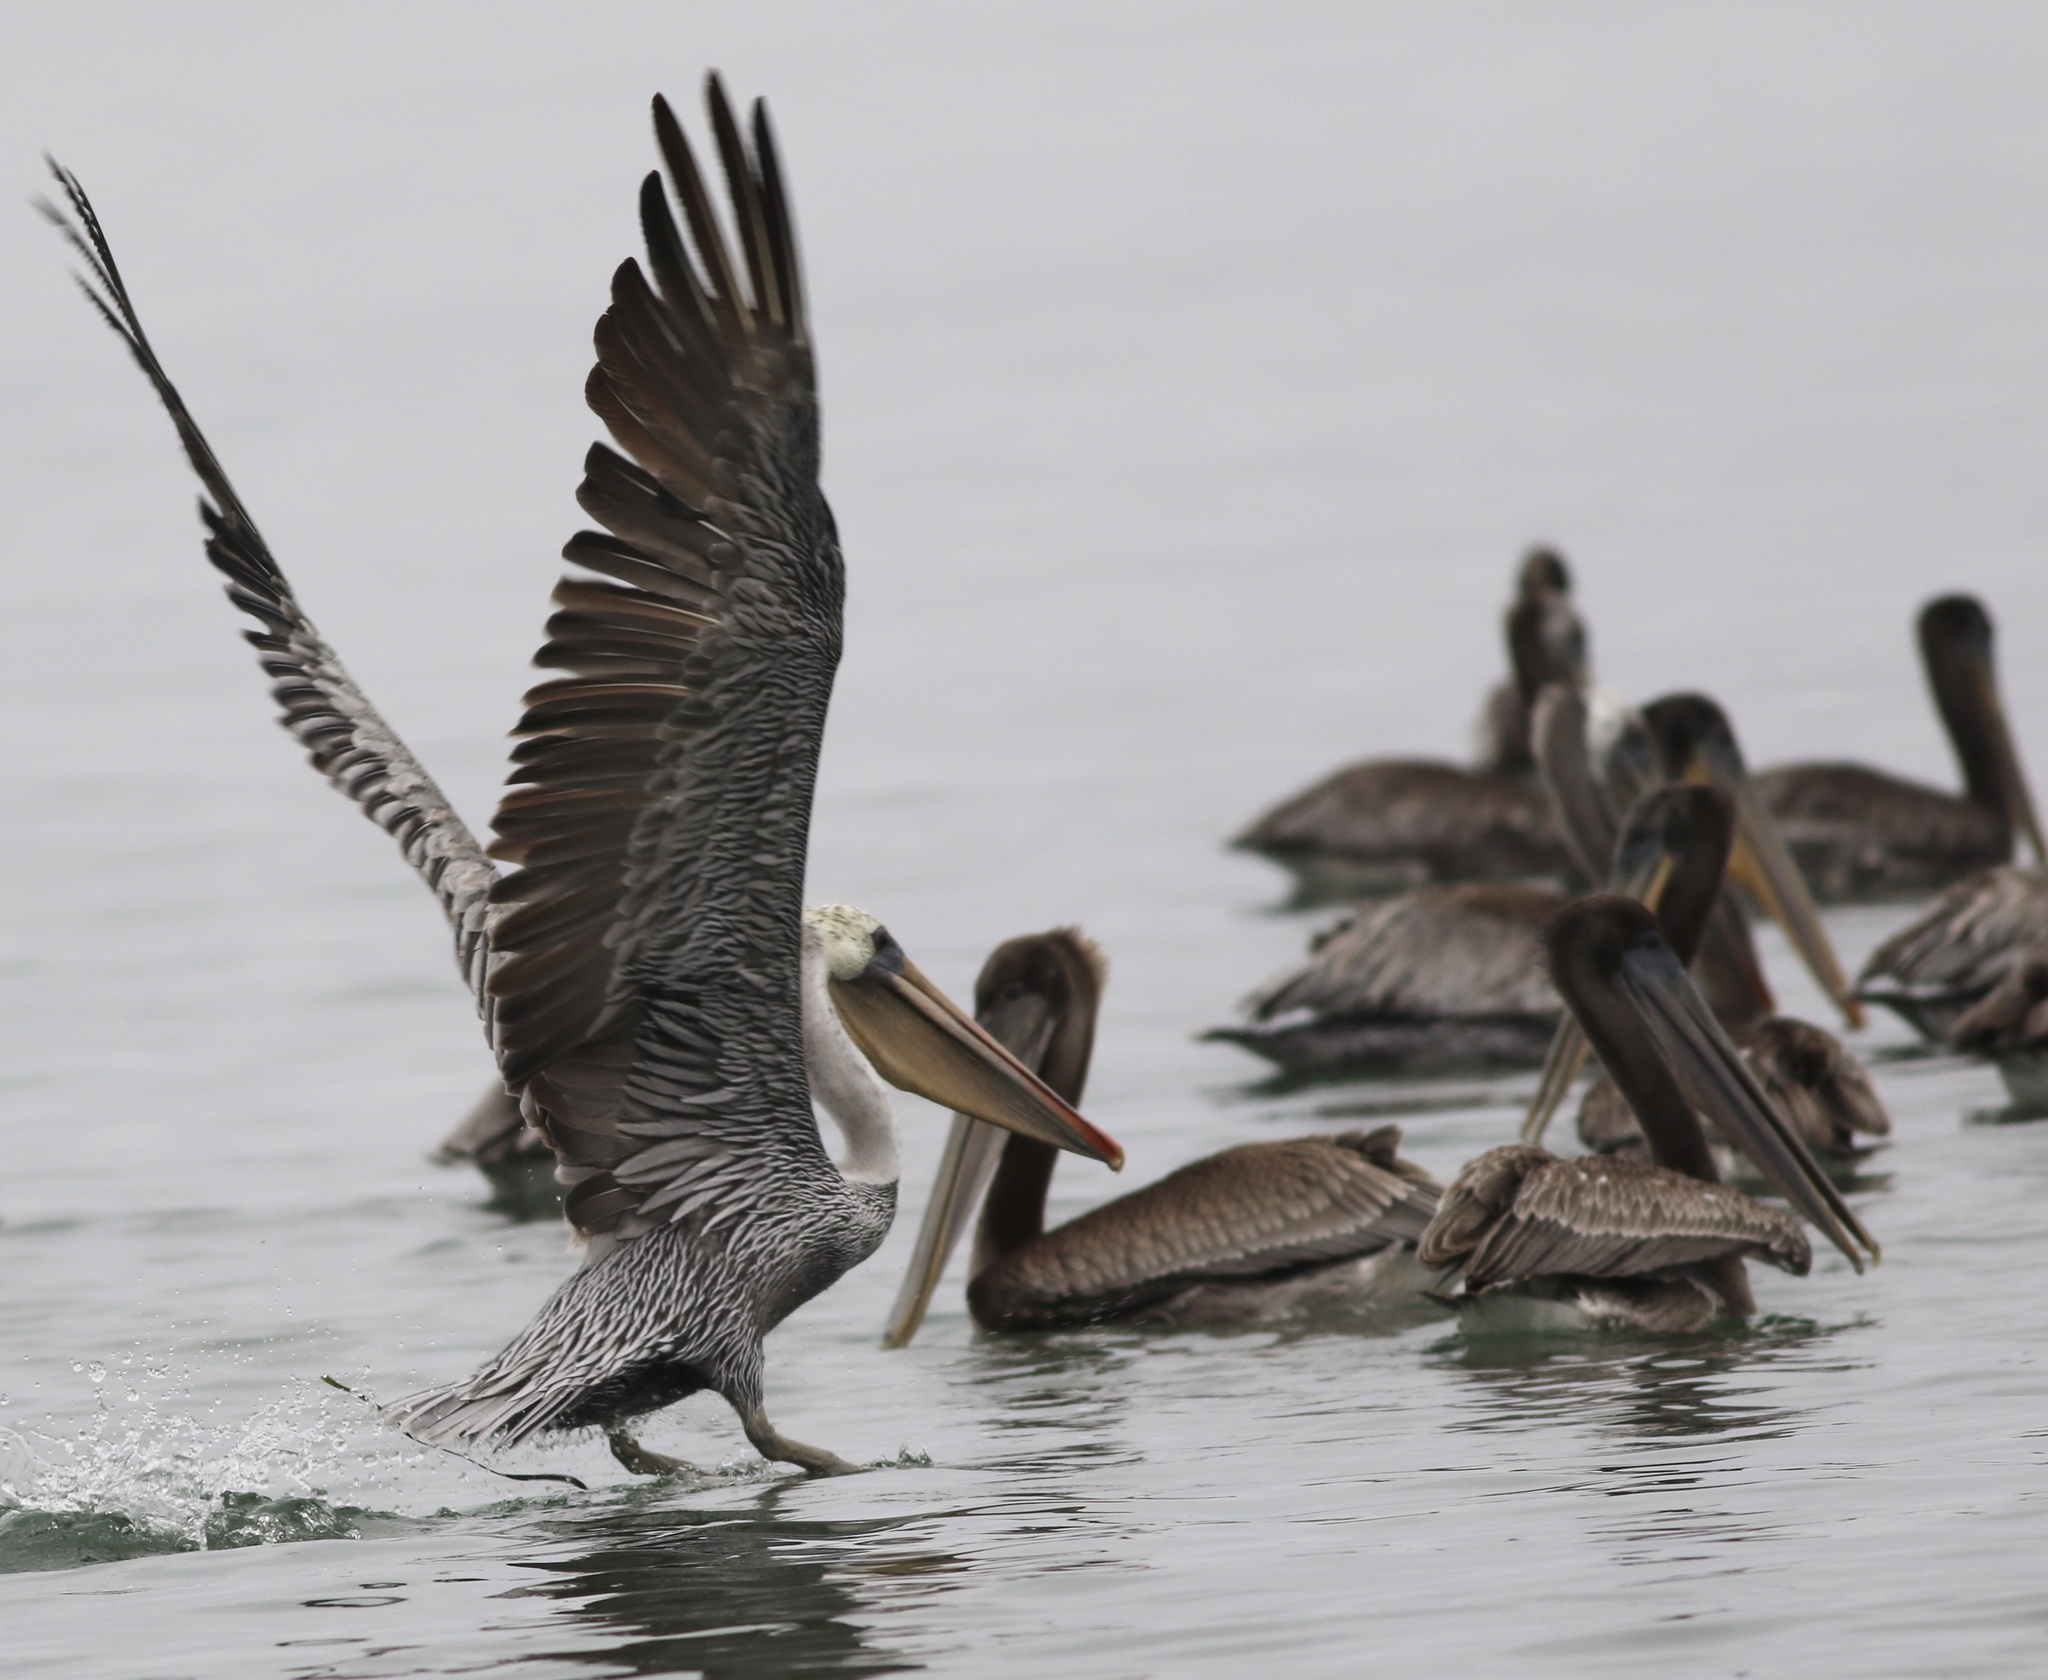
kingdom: Animalia
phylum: Chordata
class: Aves
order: Pelecaniformes
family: Pelecanidae
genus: Pelecanus
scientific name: Pelecanus occidentalis
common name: Brown pelican
